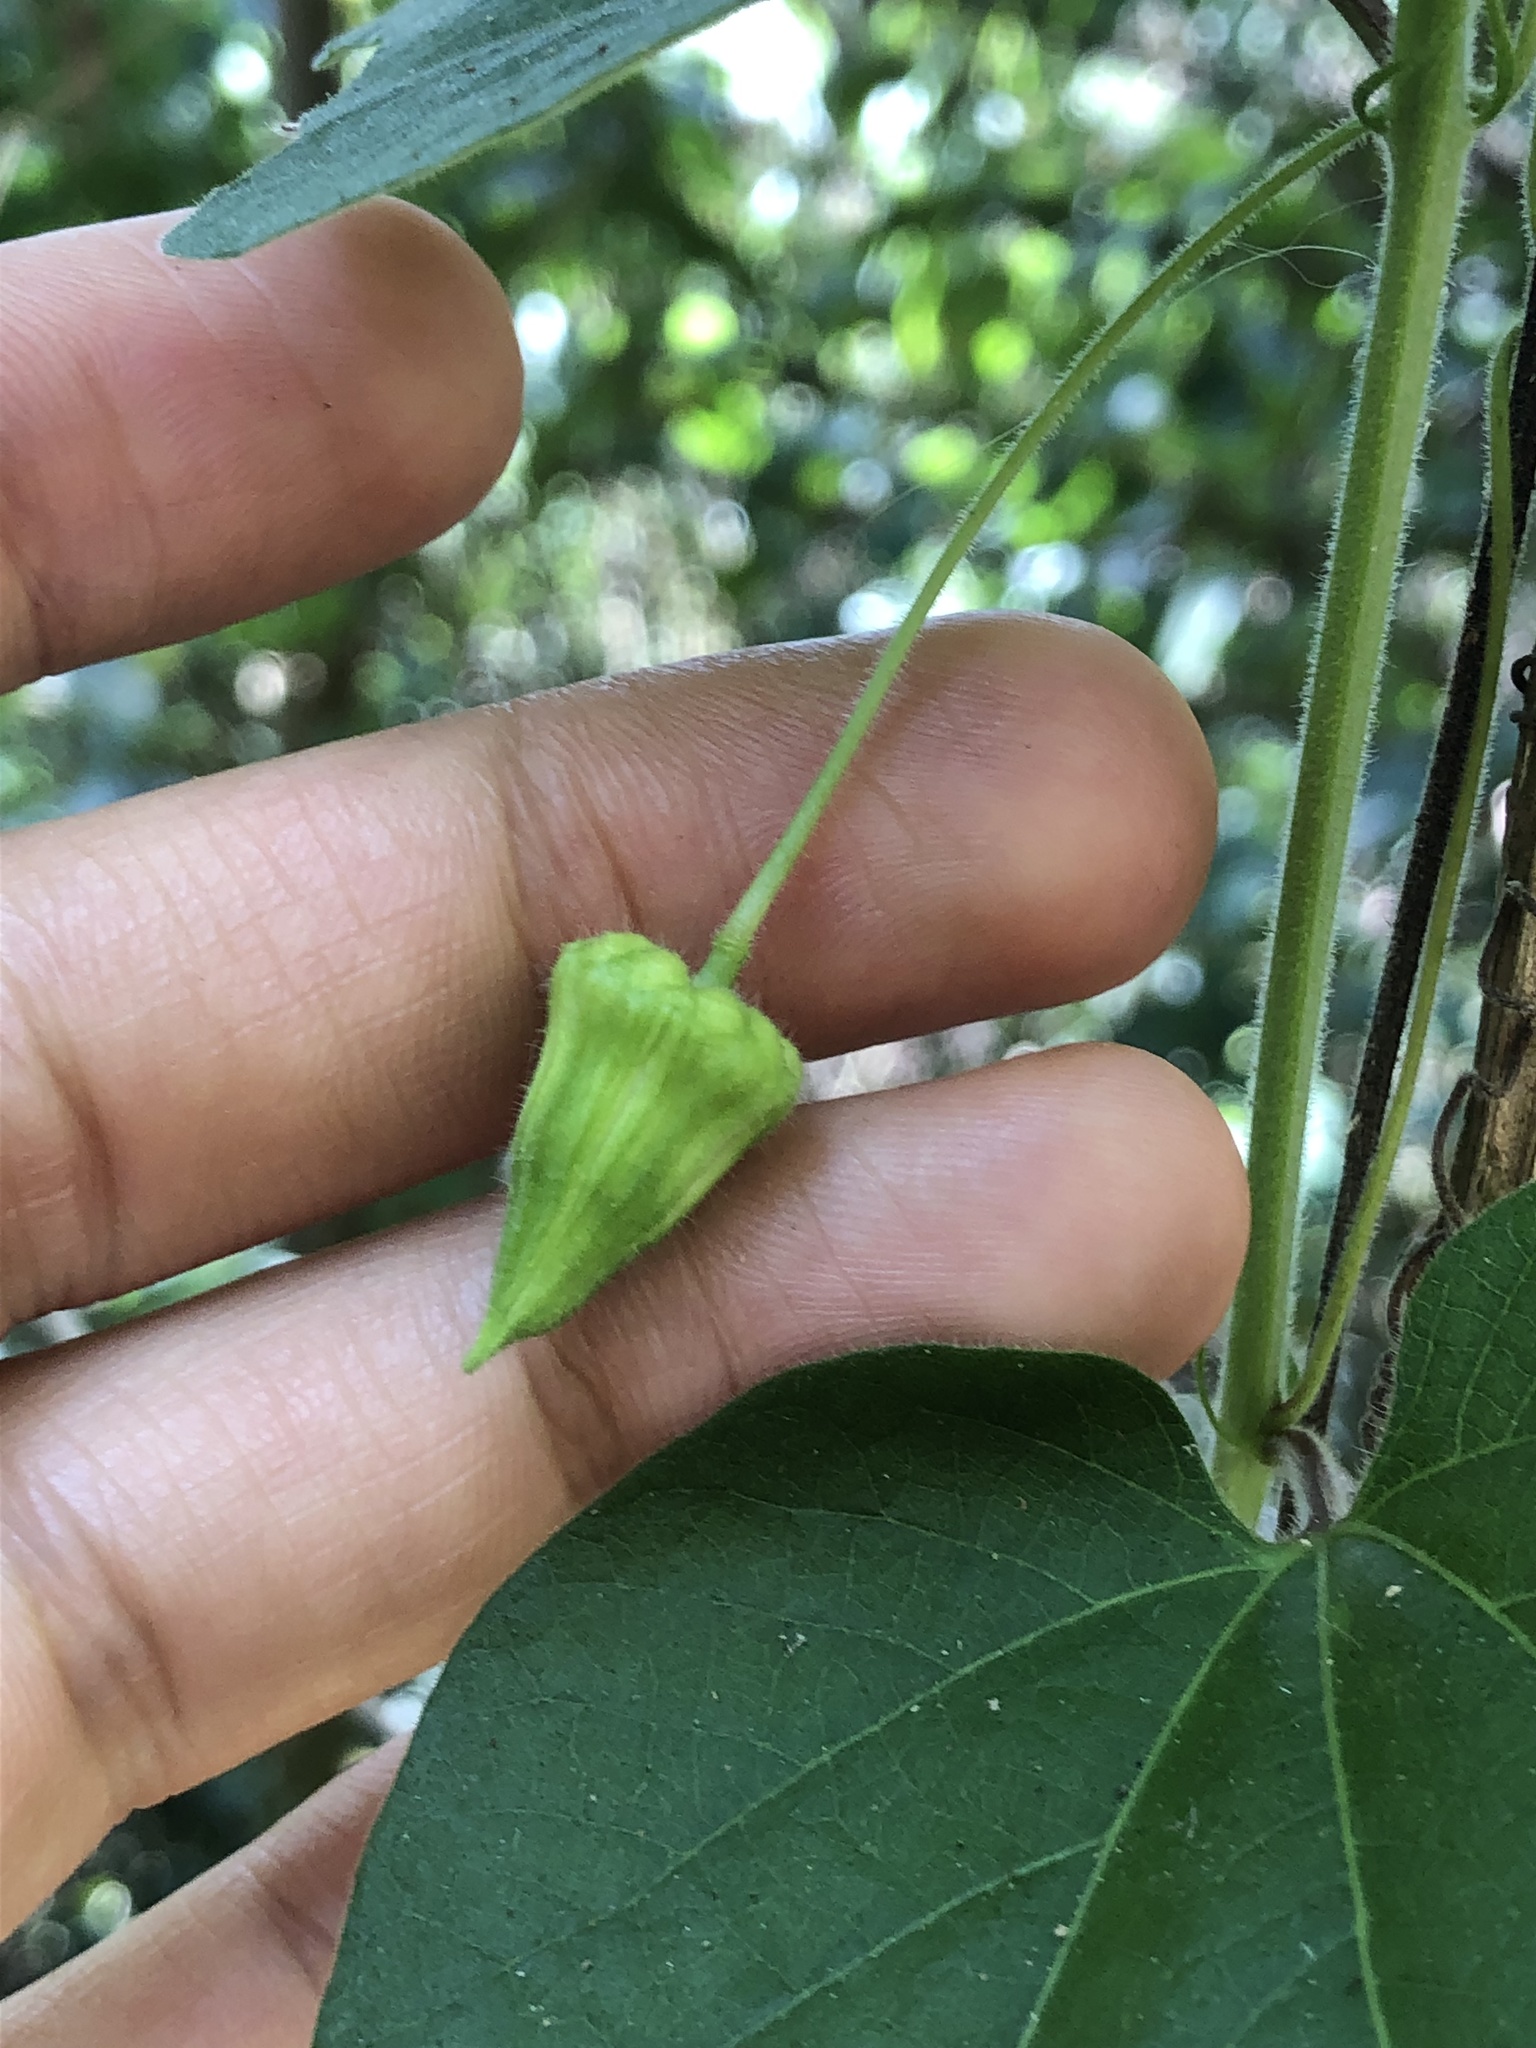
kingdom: Plantae
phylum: Tracheophyta
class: Magnoliopsida
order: Malpighiales
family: Passifloraceae
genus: Passiflora
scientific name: Passiflora capsularis
